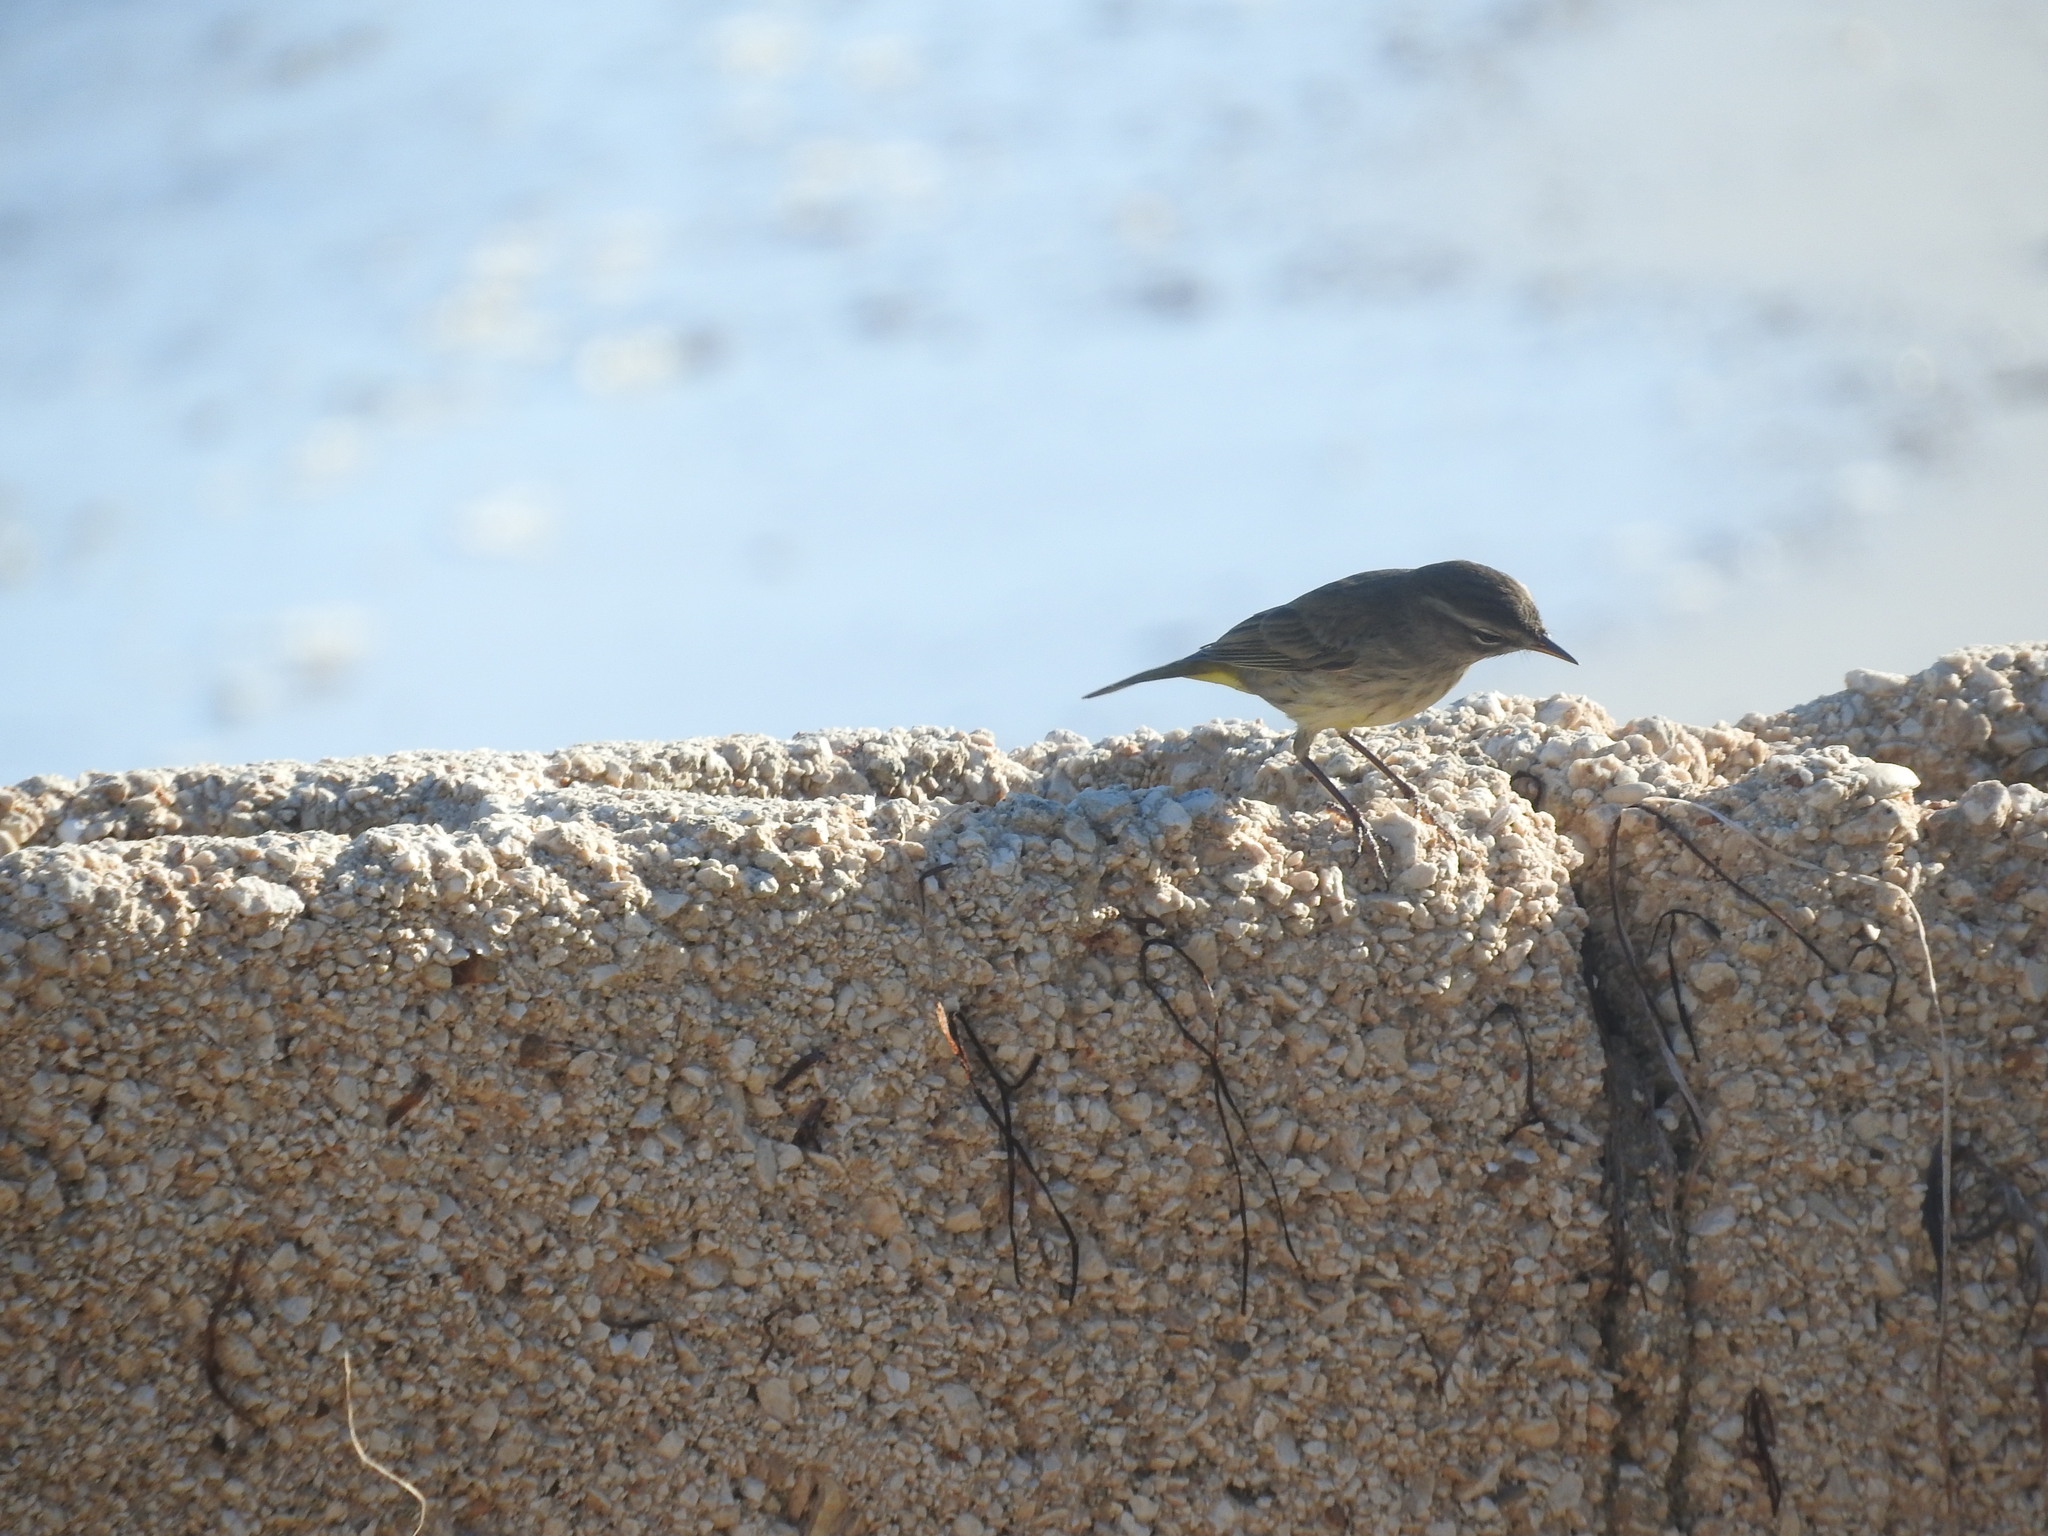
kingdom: Animalia
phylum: Chordata
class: Aves
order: Passeriformes
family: Parulidae
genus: Setophaga
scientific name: Setophaga palmarum
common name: Palm warbler
